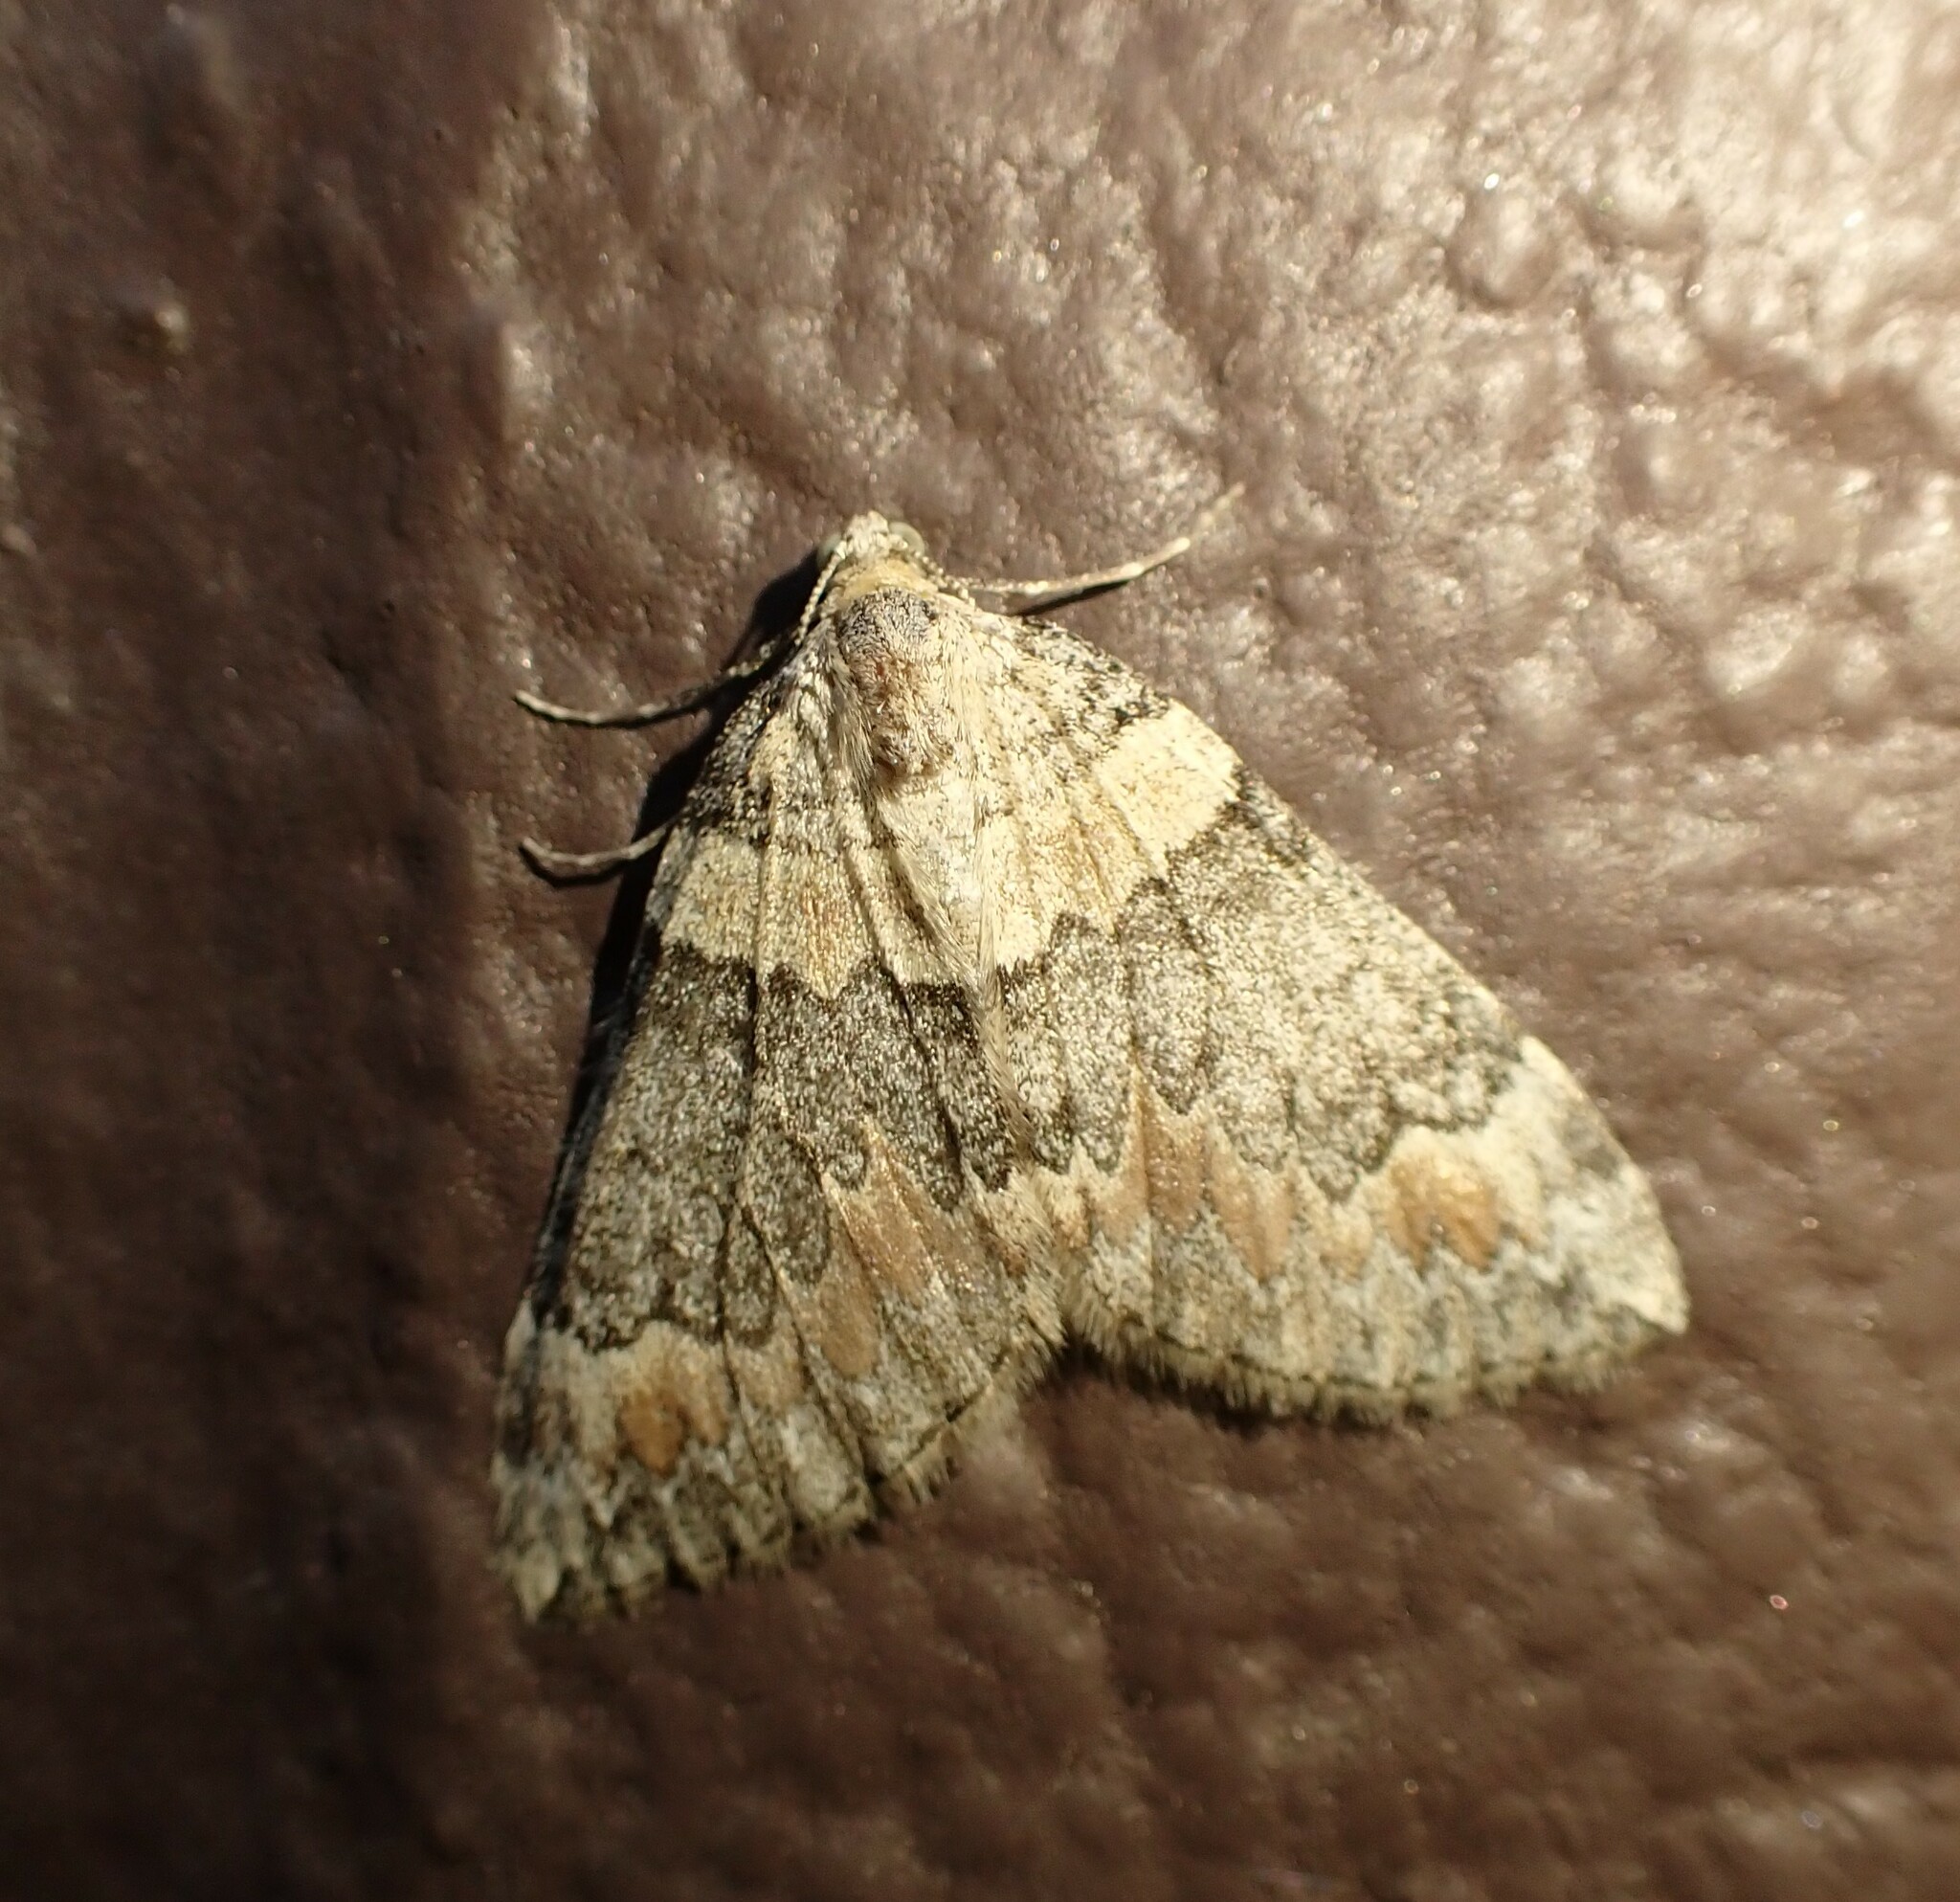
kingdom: Animalia
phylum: Arthropoda
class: Insecta
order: Lepidoptera
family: Geometridae
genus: Dysstroma
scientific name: Dysstroma brunneata
